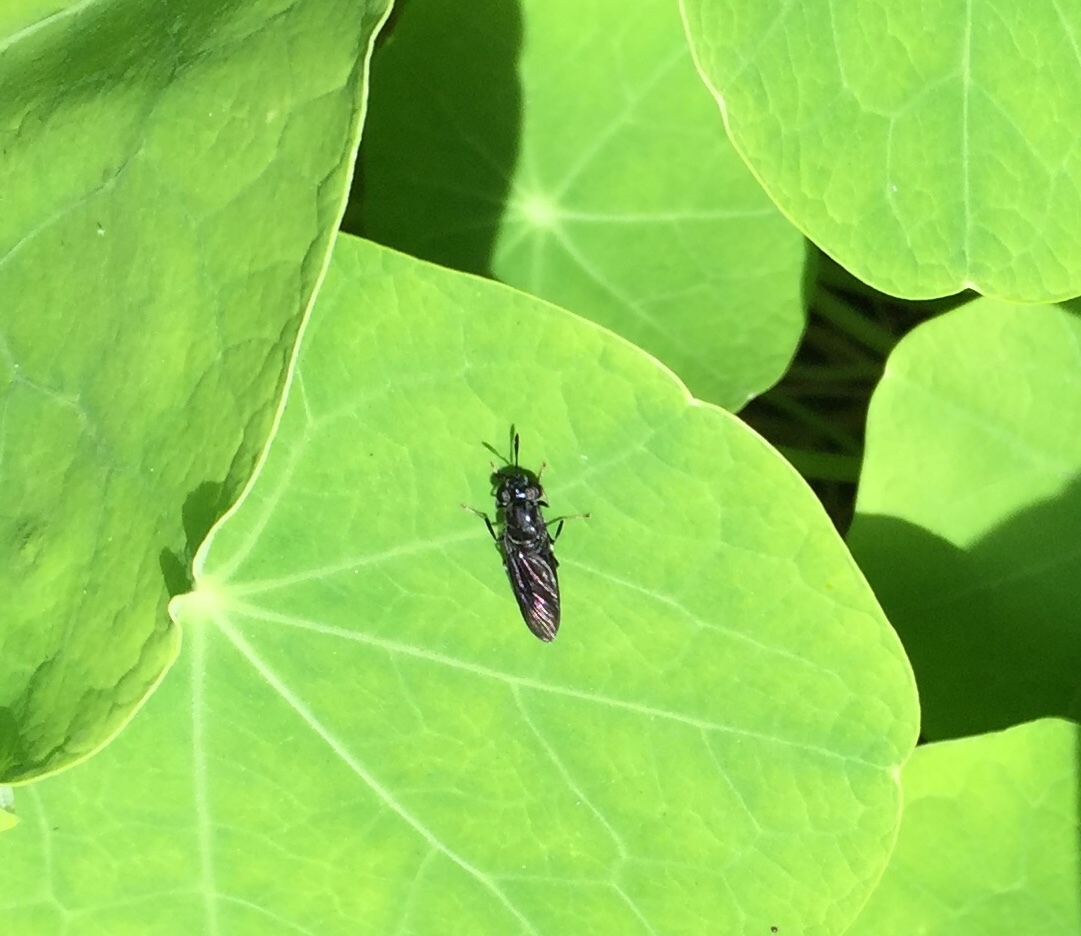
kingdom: Animalia
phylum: Arthropoda
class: Insecta
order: Diptera
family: Stratiomyidae
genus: Hermetia
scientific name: Hermetia illucens
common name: Black soldier fly
